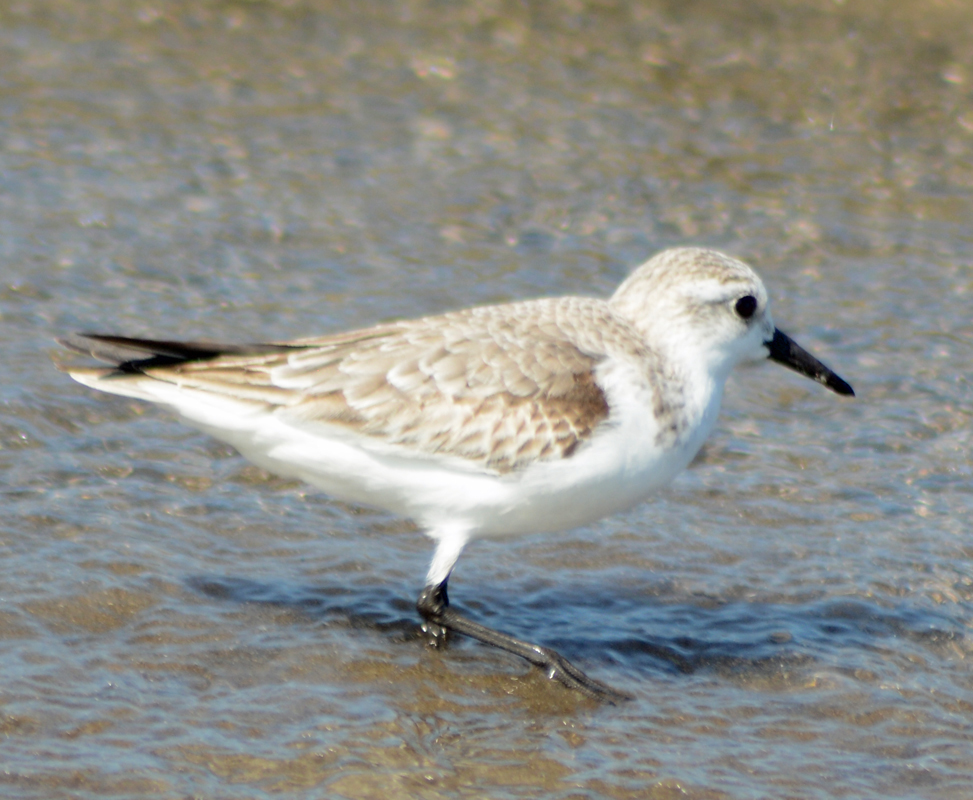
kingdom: Animalia
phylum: Chordata
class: Aves
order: Charadriiformes
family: Scolopacidae
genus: Calidris
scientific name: Calidris alba
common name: Sanderling
